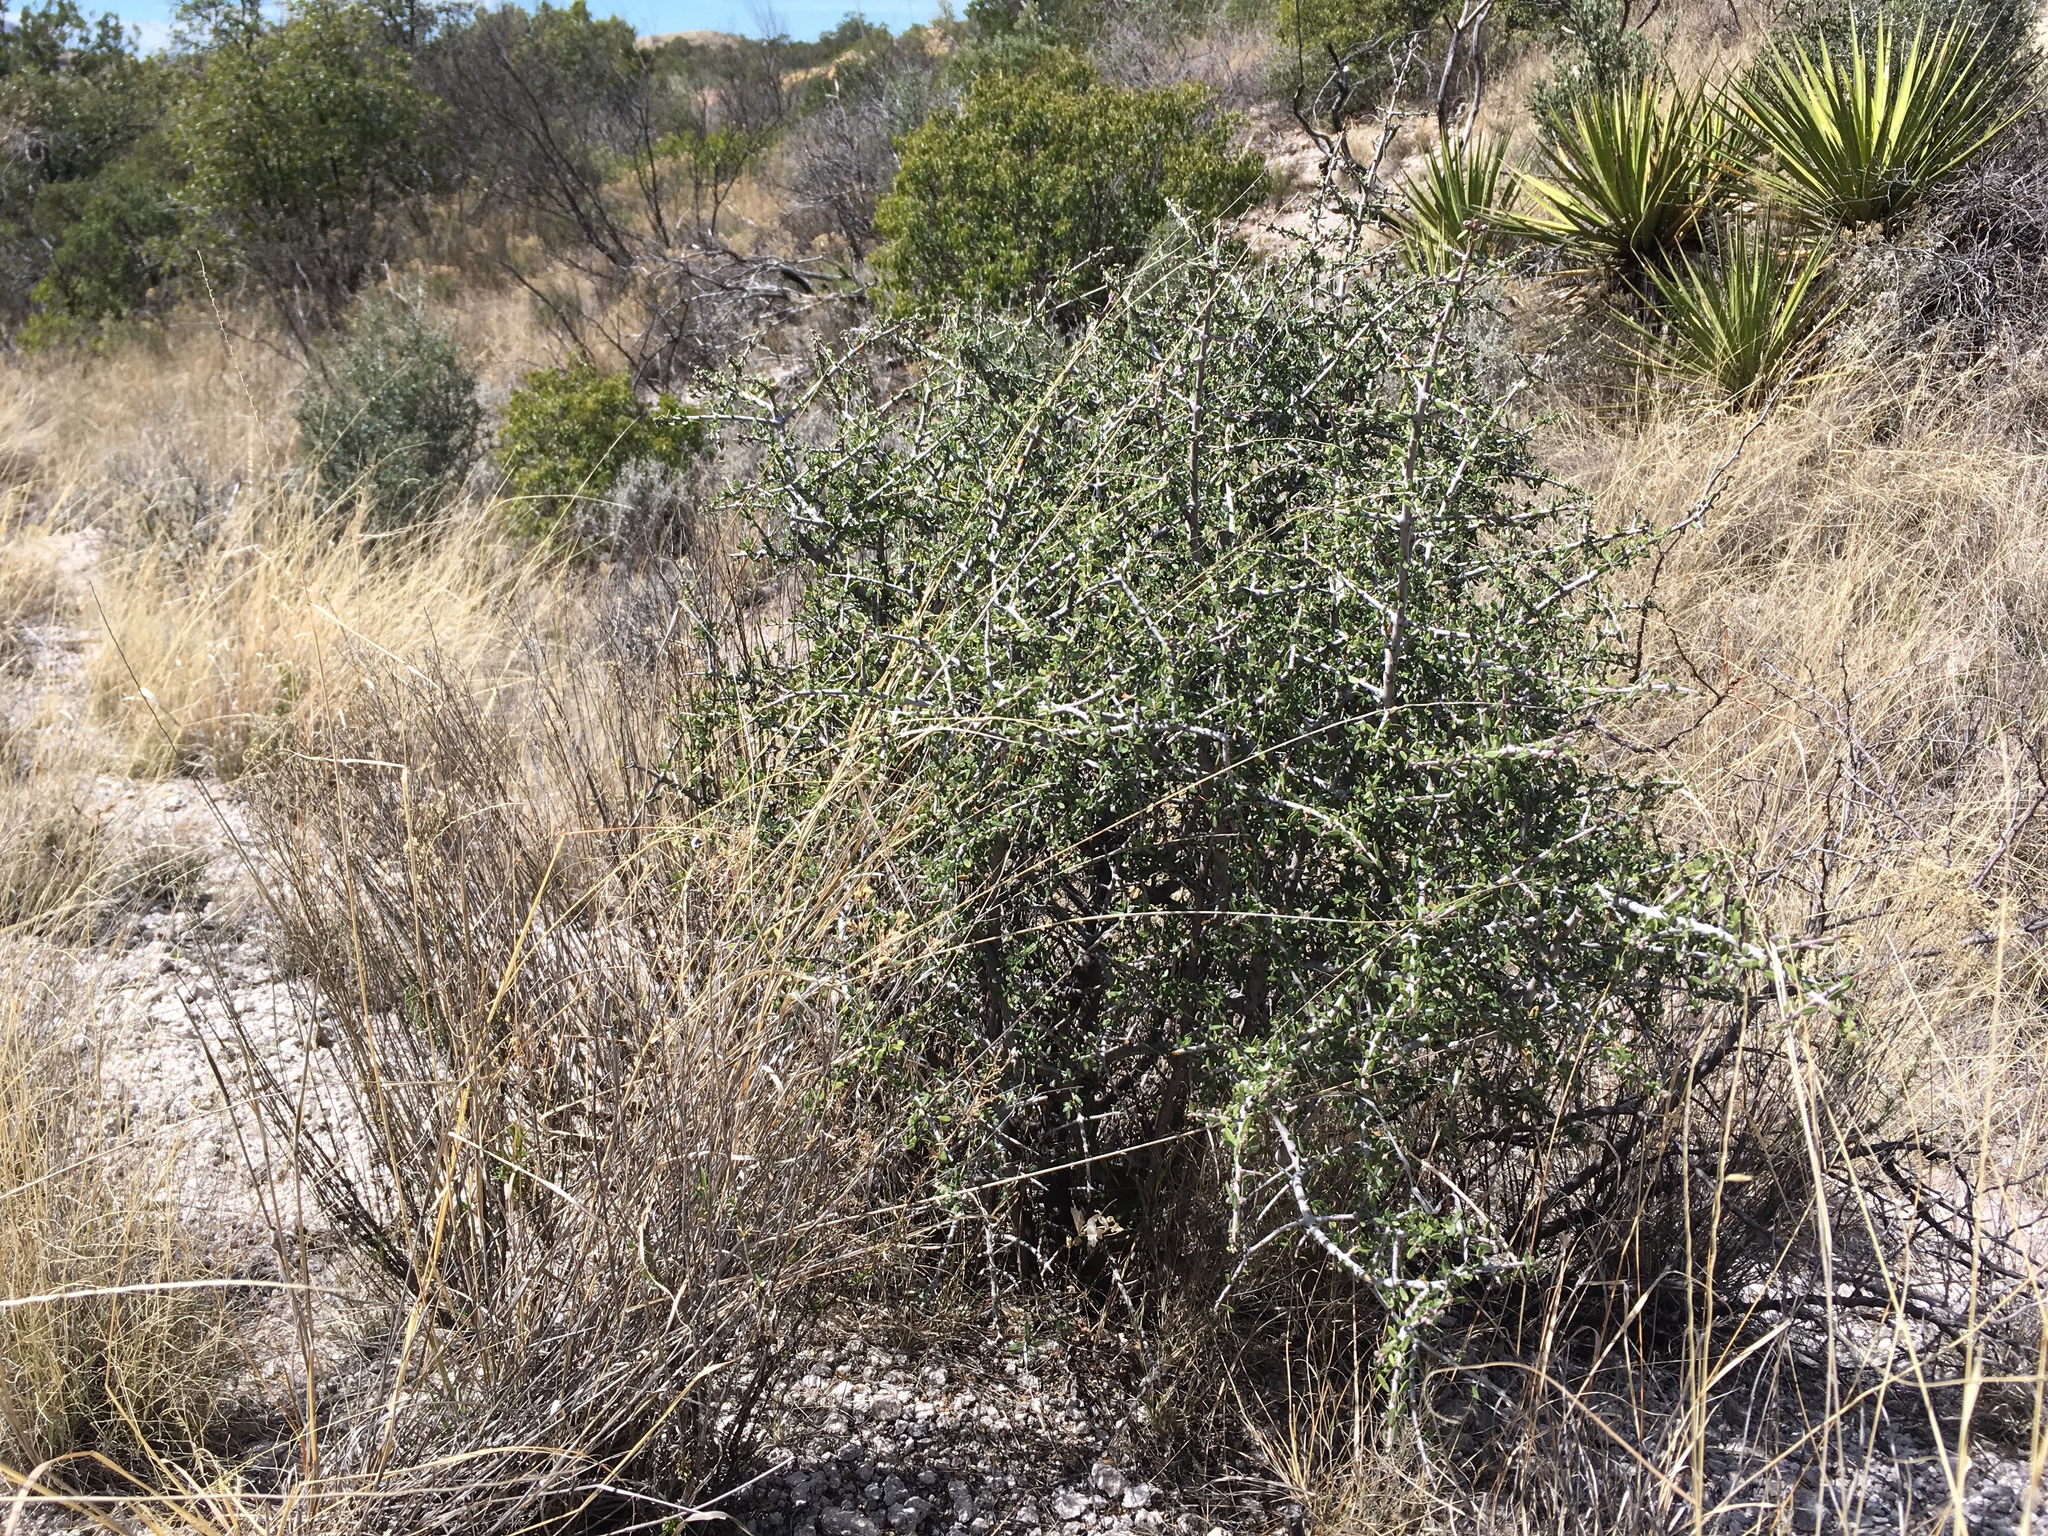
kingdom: Plantae
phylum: Tracheophyta
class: Magnoliopsida
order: Rosales
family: Rhamnaceae
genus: Ceanothus
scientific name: Ceanothus pauciflorus
